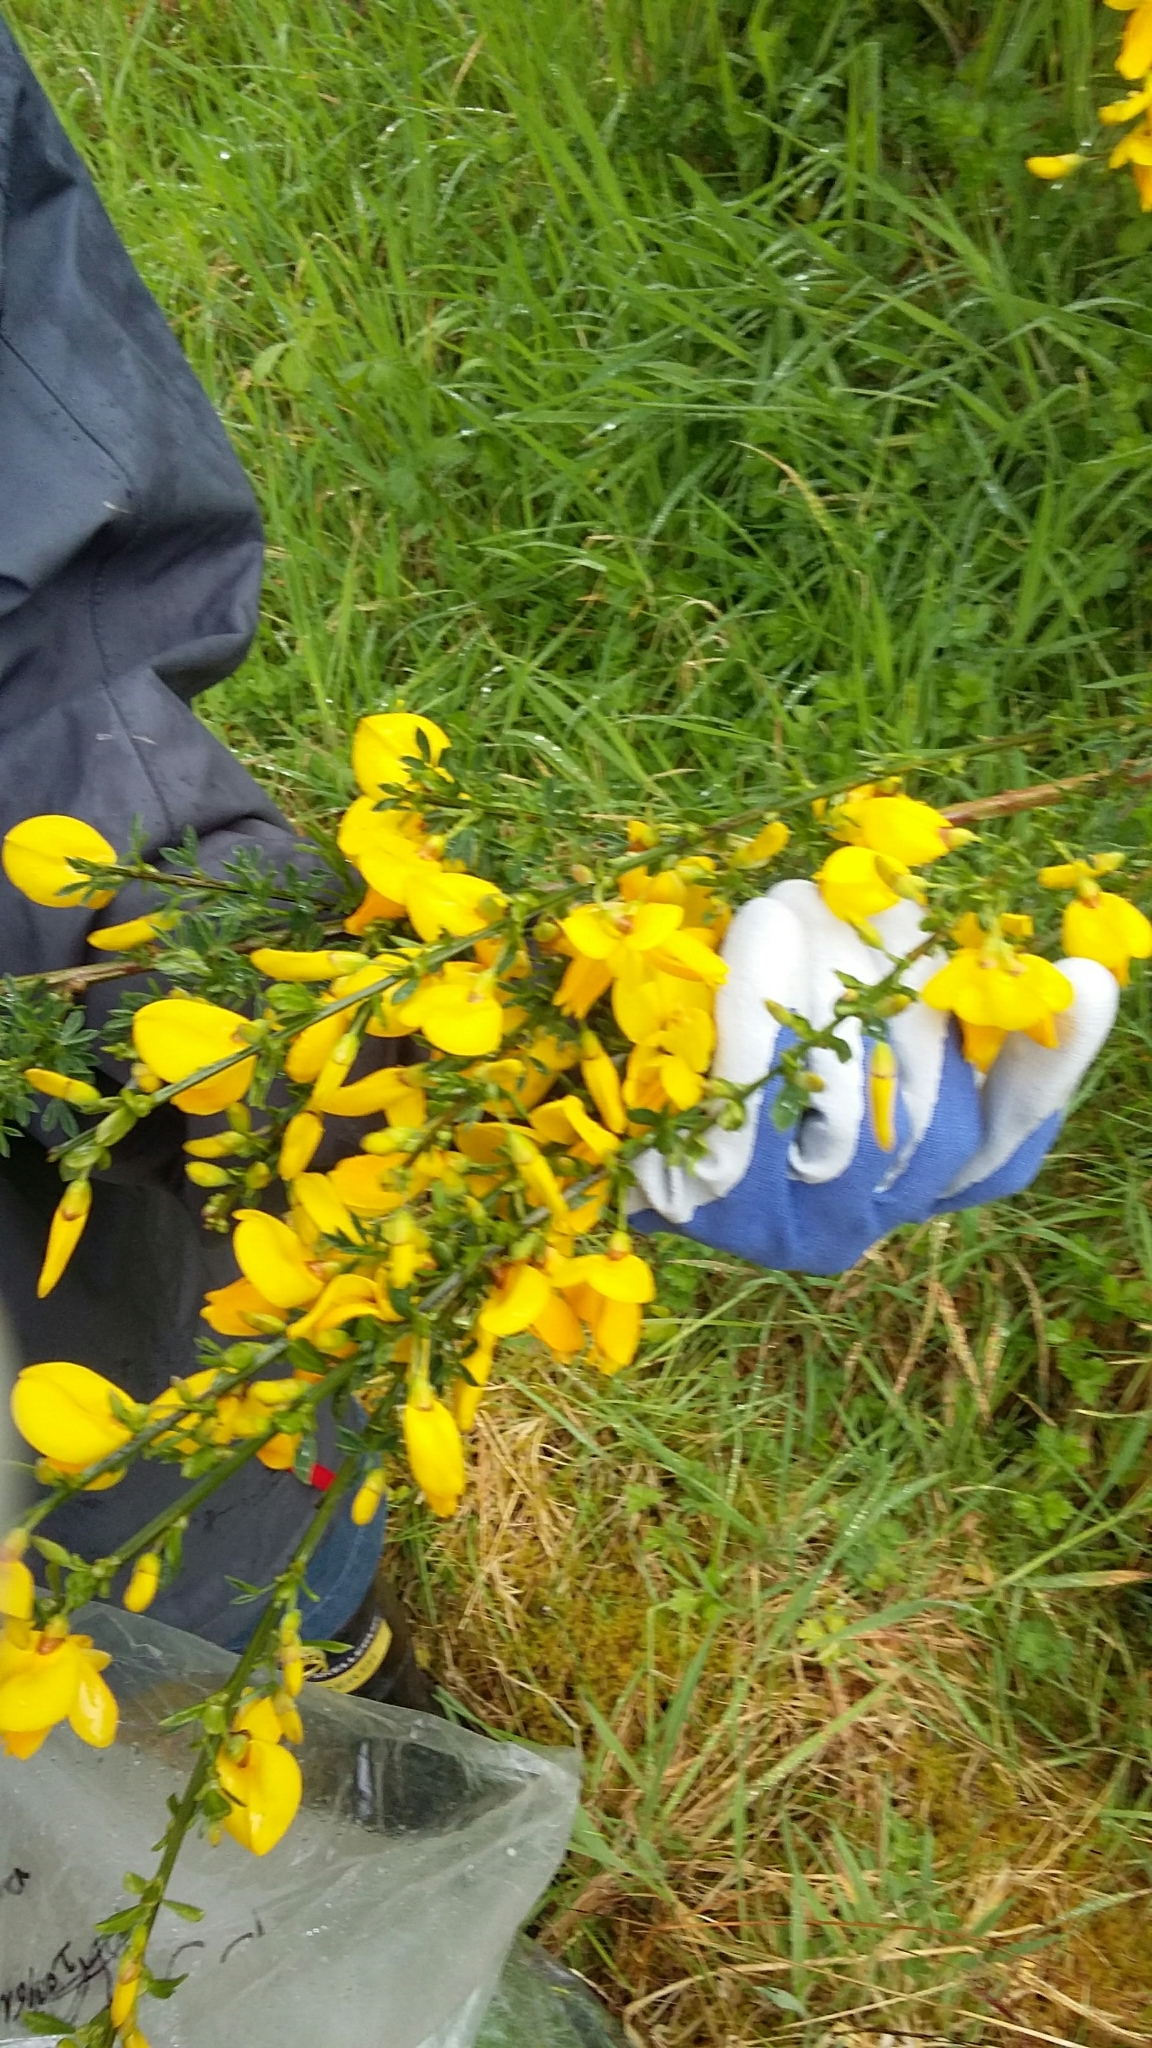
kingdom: Plantae
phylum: Tracheophyta
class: Magnoliopsida
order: Fabales
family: Fabaceae
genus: Cytisus
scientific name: Cytisus scoparius
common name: Scotch broom
